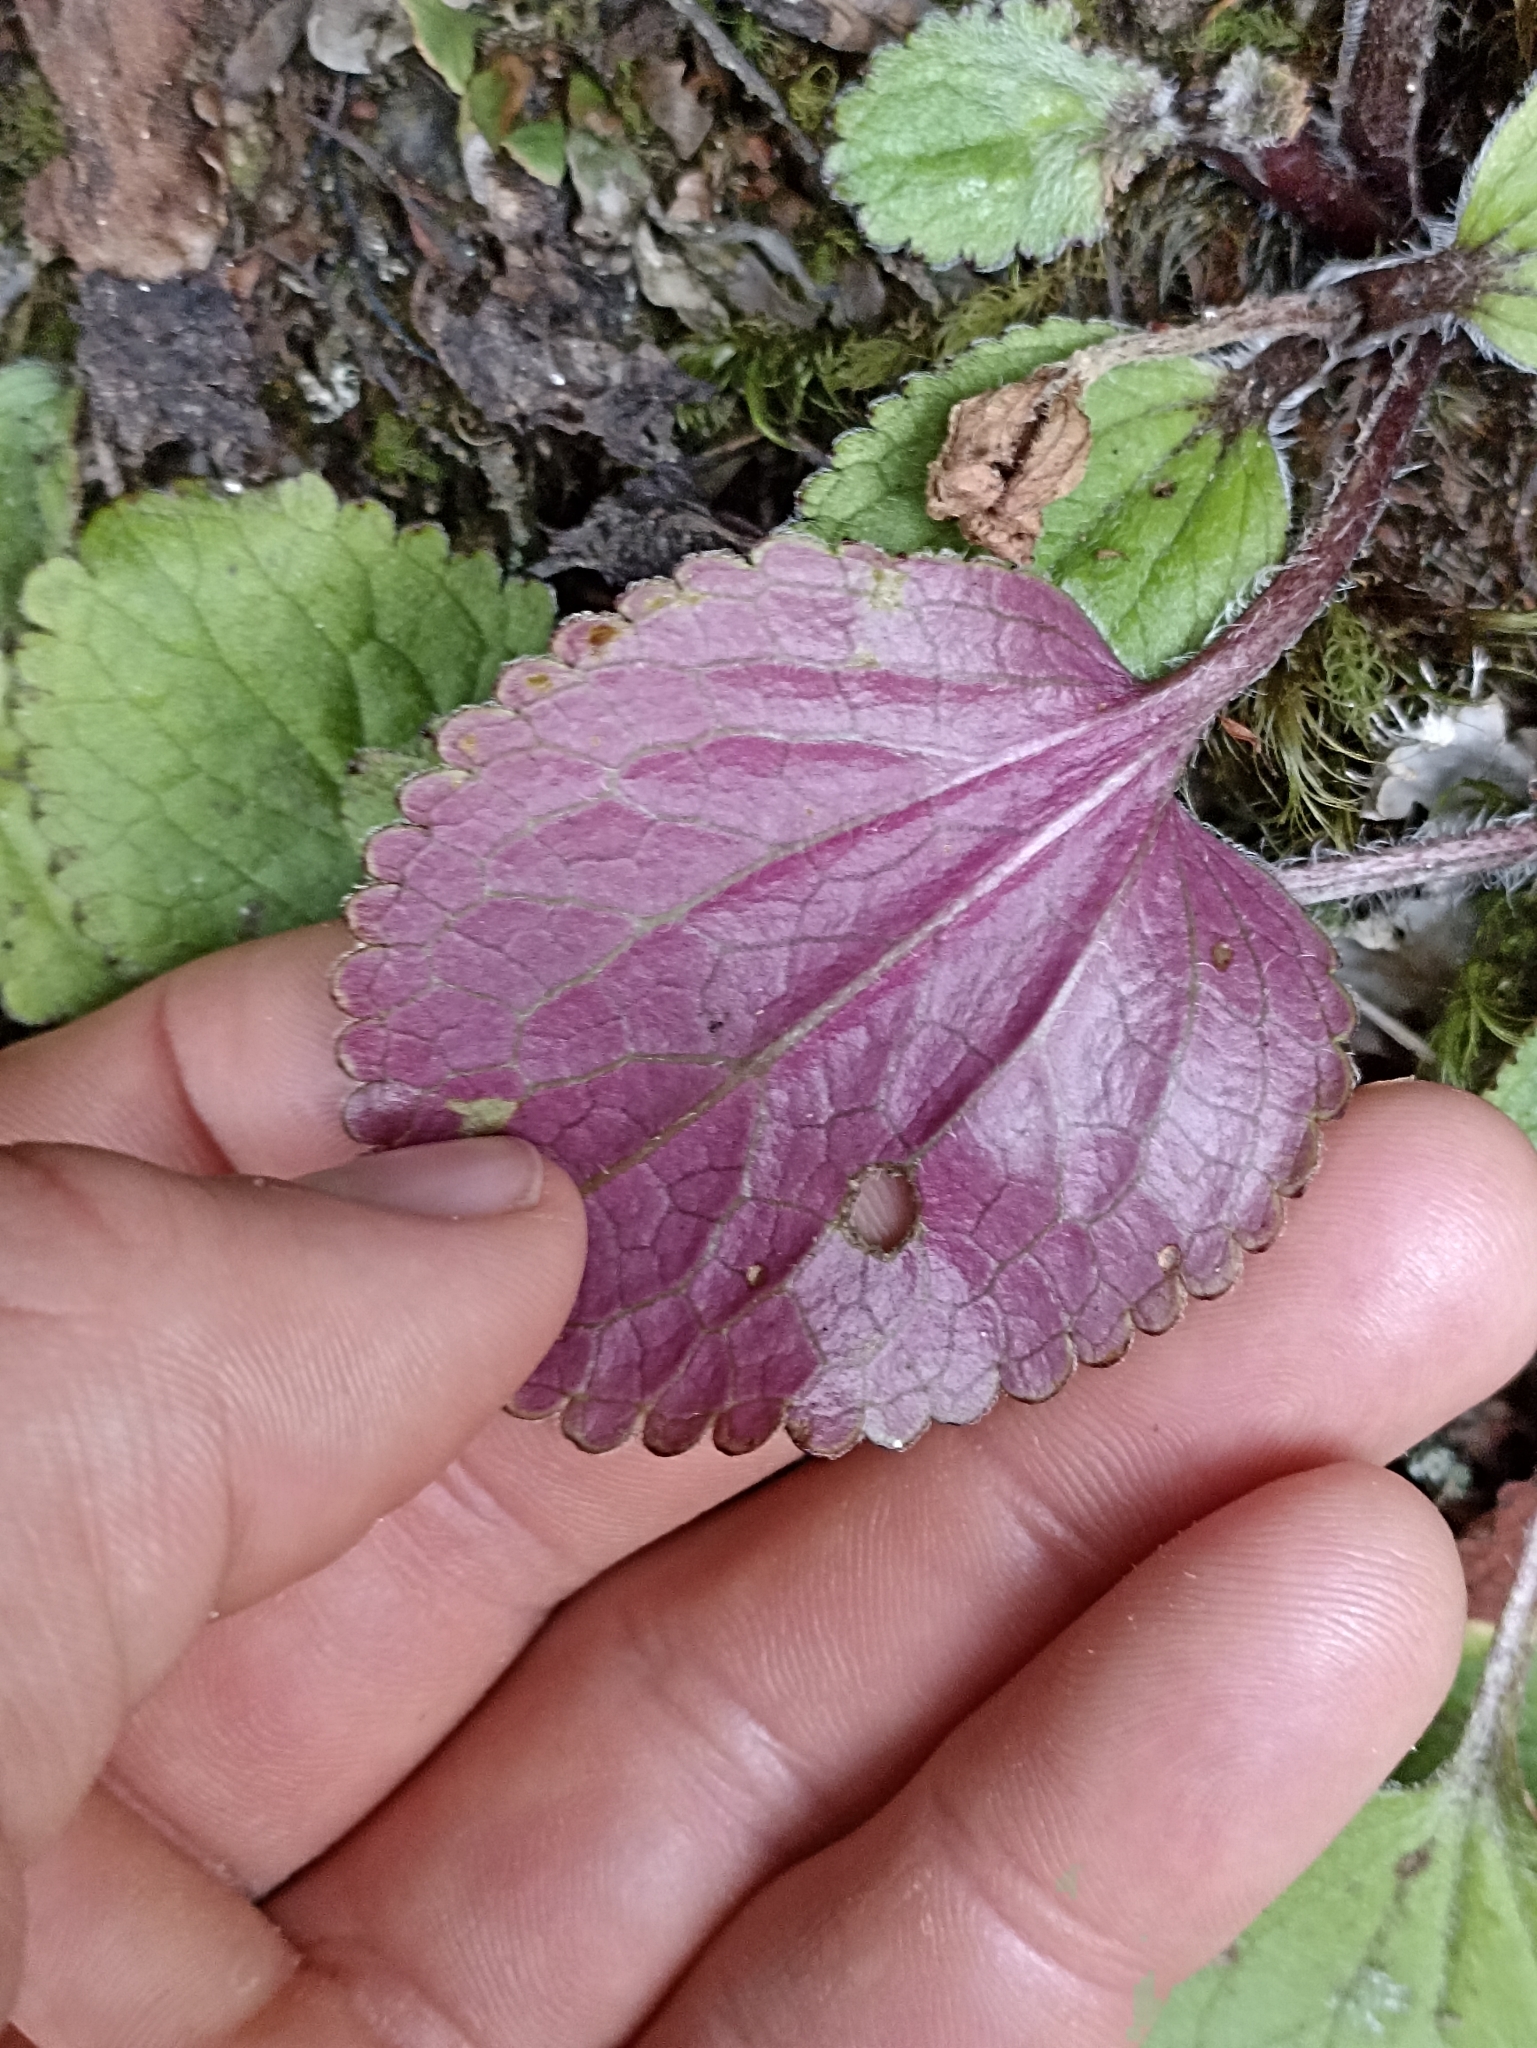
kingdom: Plantae
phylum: Tracheophyta
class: Magnoliopsida
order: Lamiales
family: Plantaginaceae
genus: Ourisia
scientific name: Ourisia macrophylla
